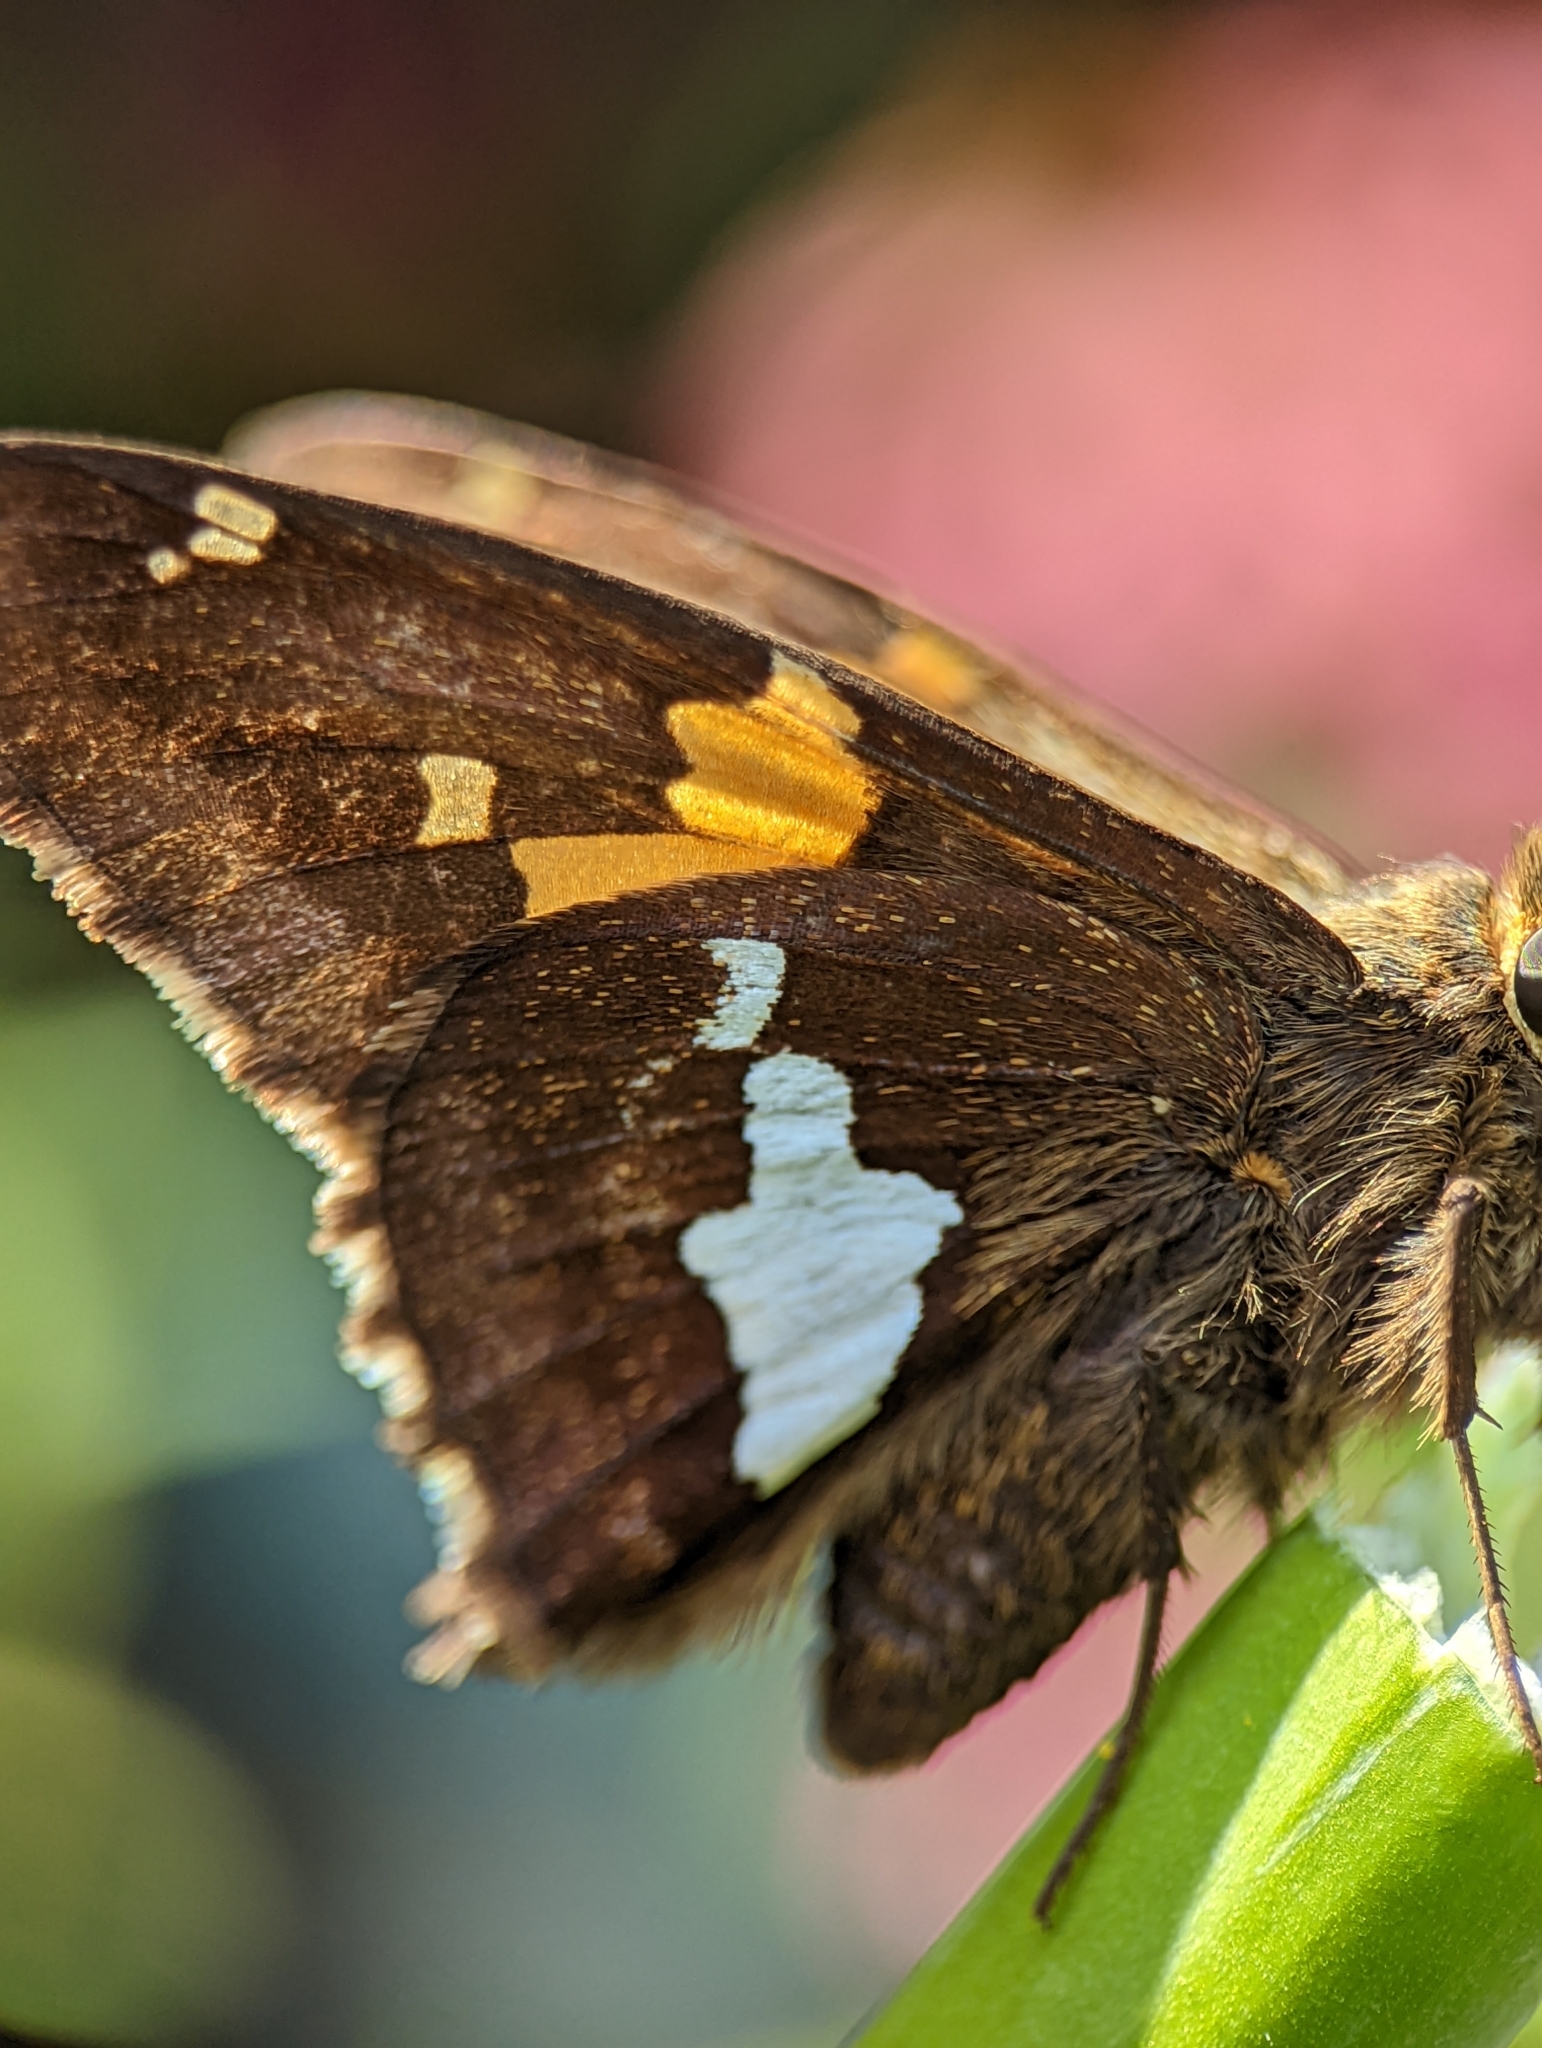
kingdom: Animalia
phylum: Arthropoda
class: Insecta
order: Lepidoptera
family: Hesperiidae
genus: Epargyreus
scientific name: Epargyreus clarus
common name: Silver-spotted skipper
